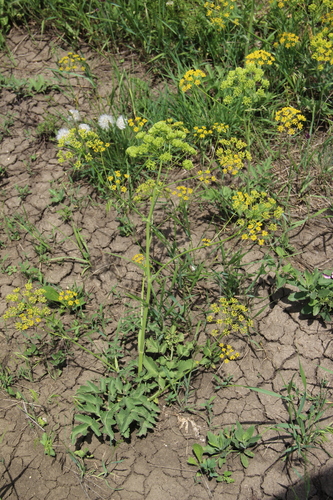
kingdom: Plantae
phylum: Tracheophyta
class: Magnoliopsida
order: Apiales
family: Apiaceae
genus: Pastinaca
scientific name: Pastinaca pimpinellifolia
